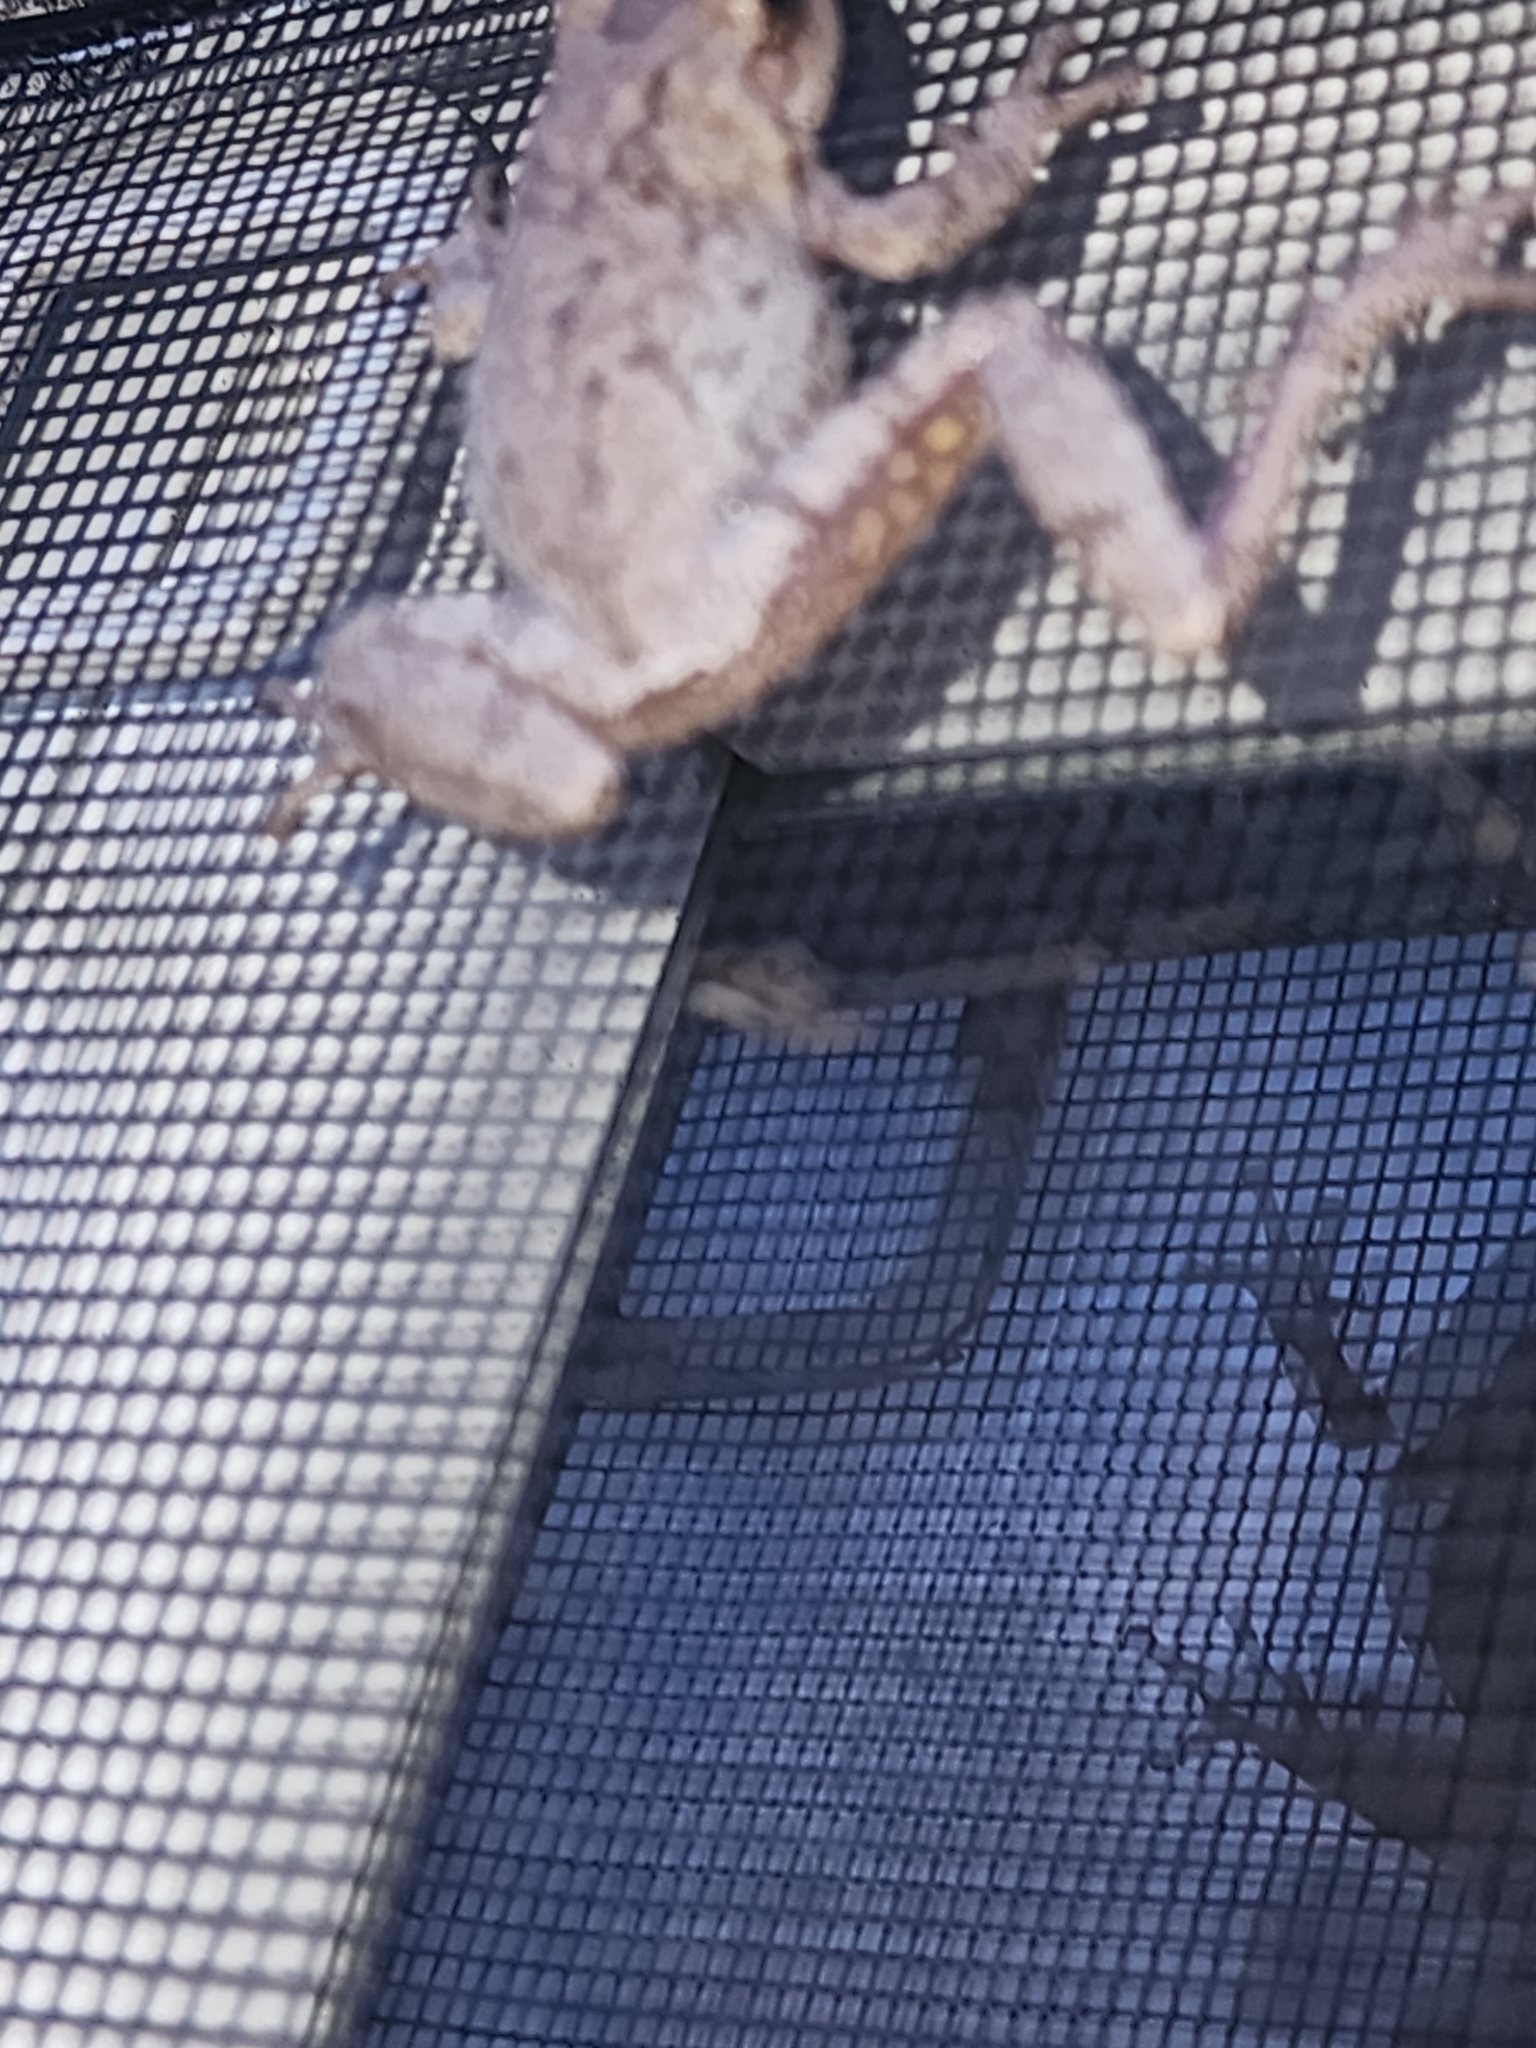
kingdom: Animalia
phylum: Chordata
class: Amphibia
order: Anura
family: Hylidae
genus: Hyla
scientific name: Hyla femoralis
